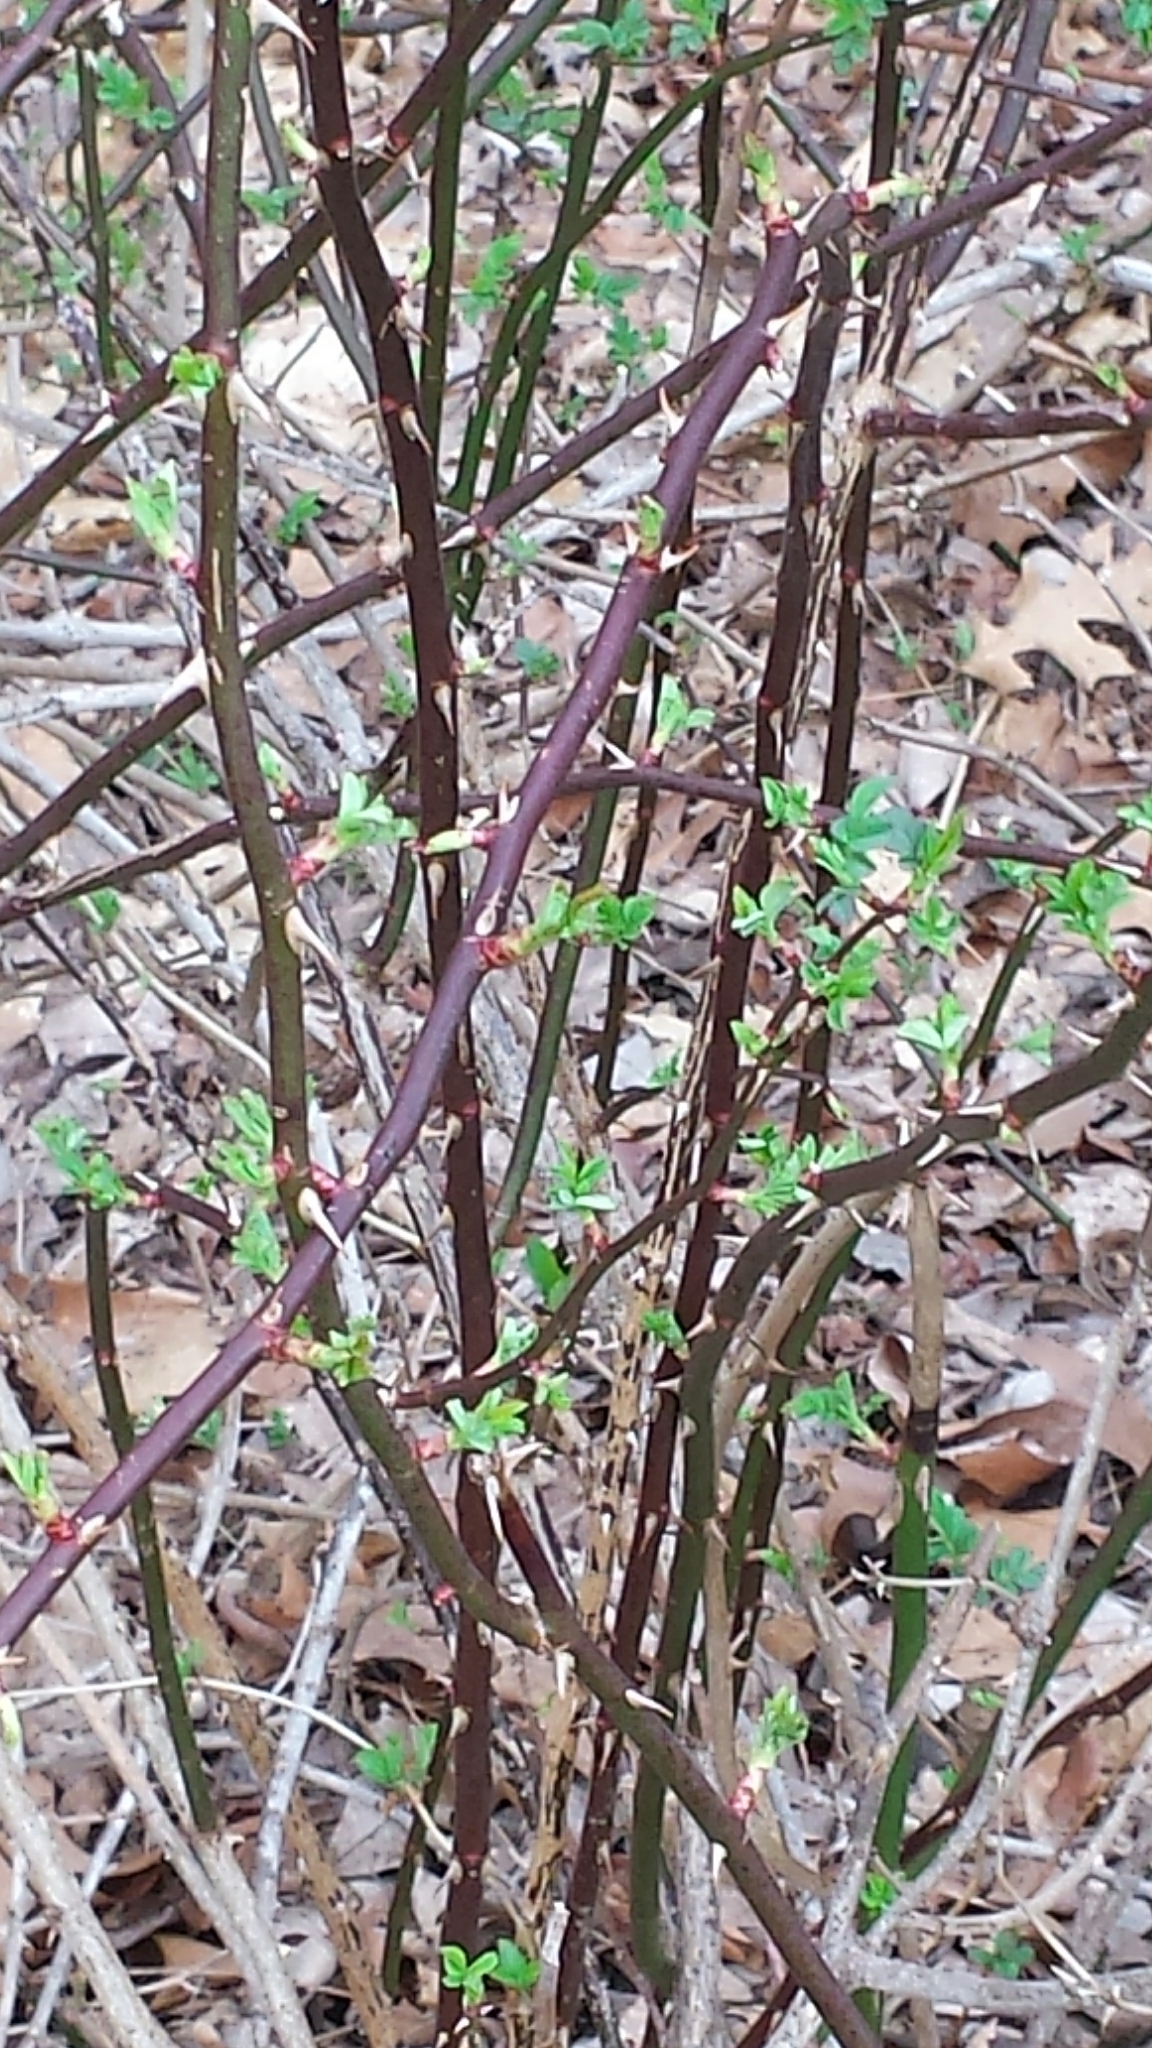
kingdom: Plantae
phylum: Tracheophyta
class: Magnoliopsida
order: Rosales
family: Rosaceae
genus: Rosa
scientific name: Rosa multiflora
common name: Multiflora rose
